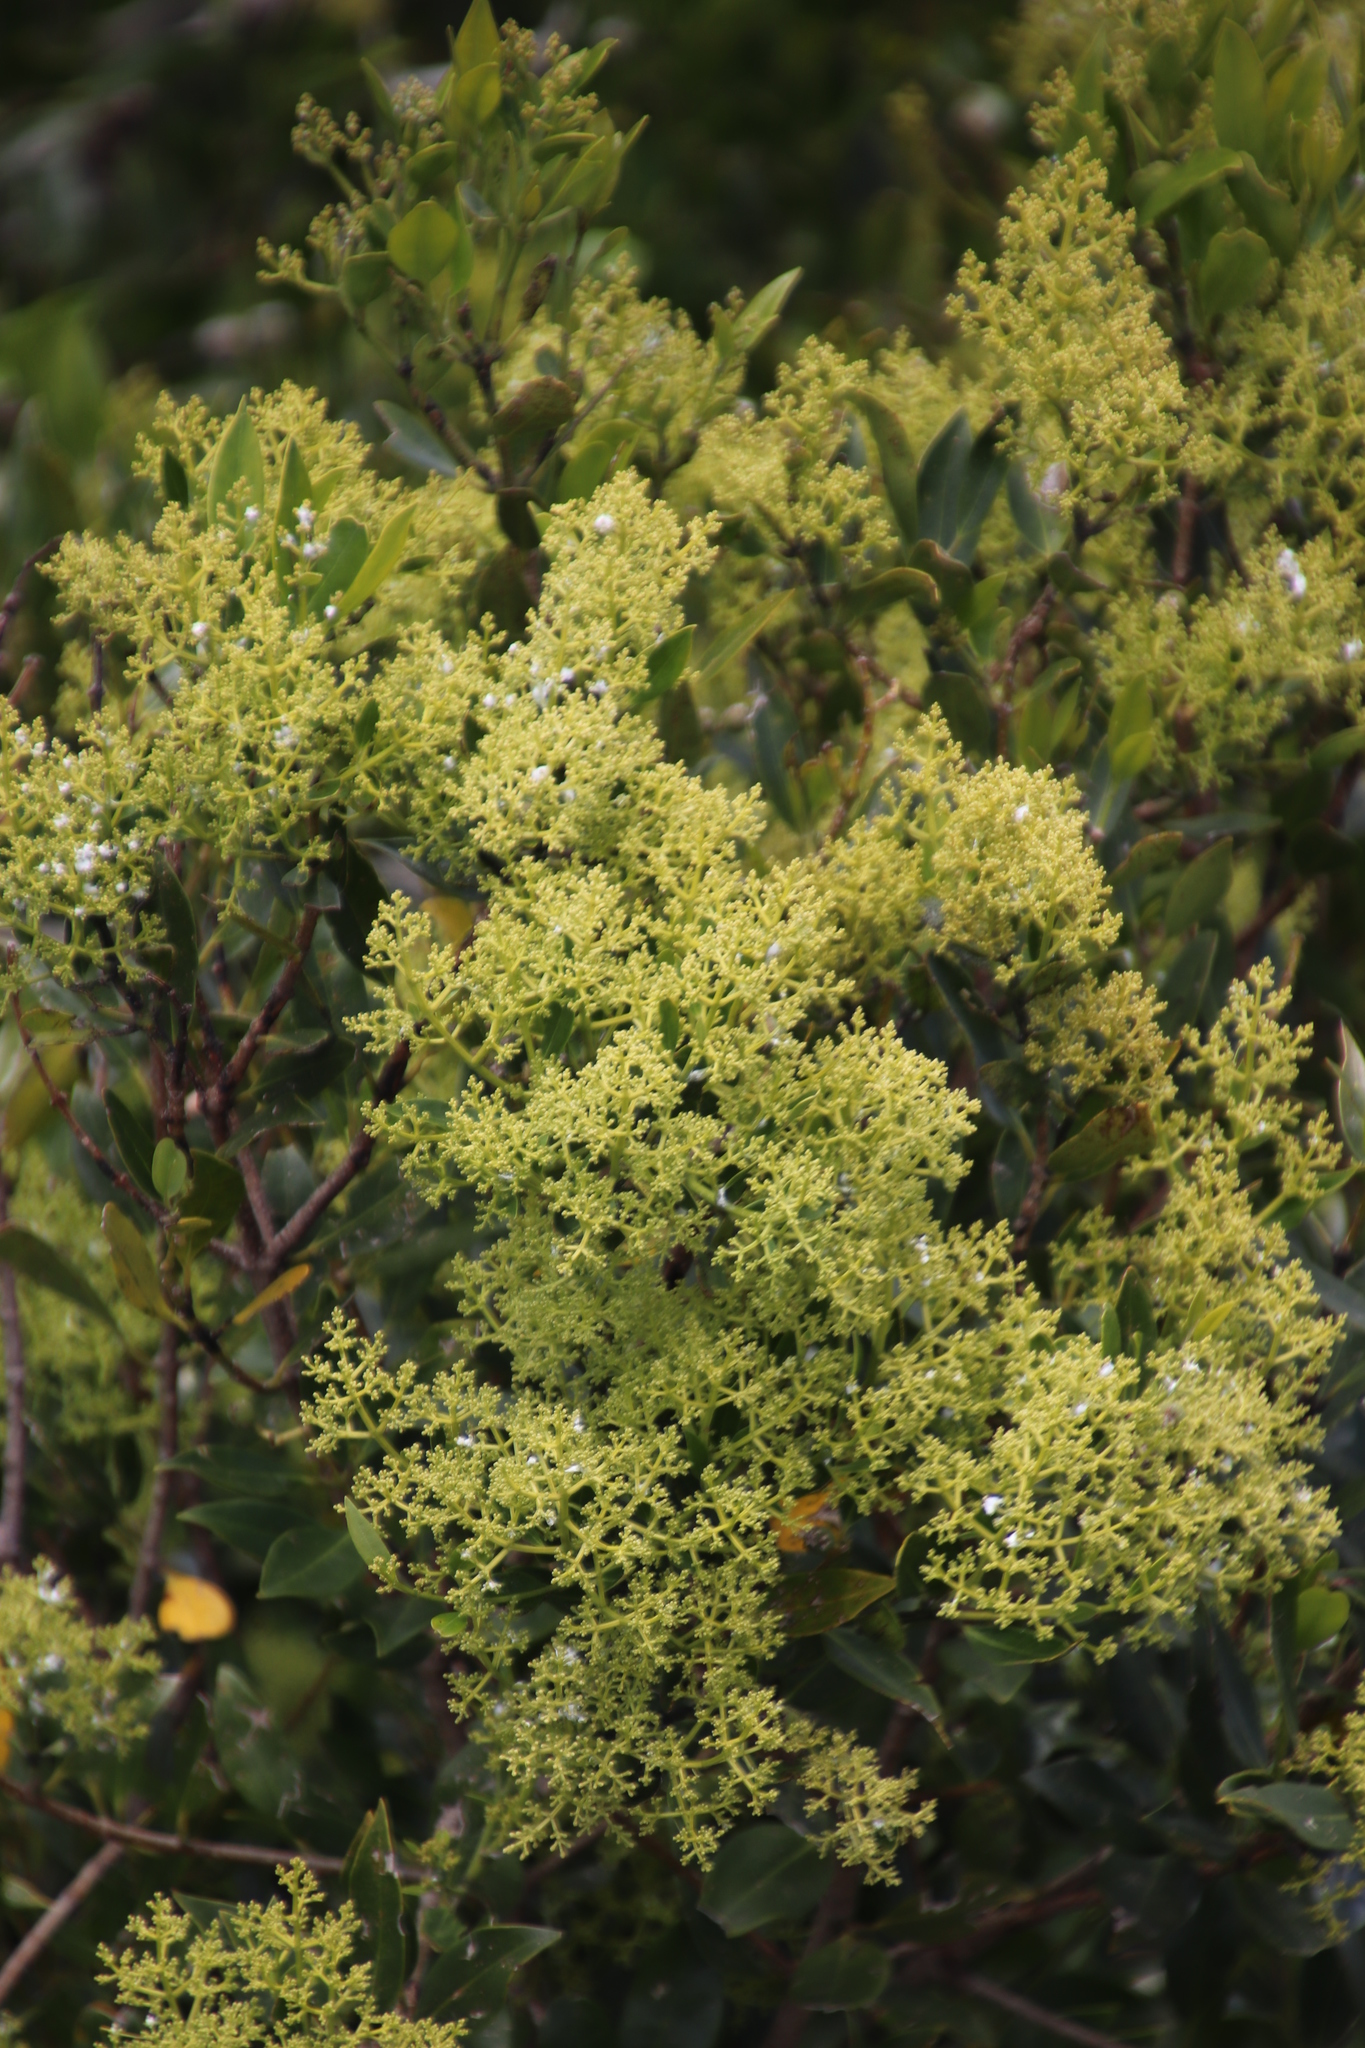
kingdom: Plantae
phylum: Tracheophyta
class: Magnoliopsida
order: Gentianales
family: Apocynaceae
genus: Secamone
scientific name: Secamone alpini
